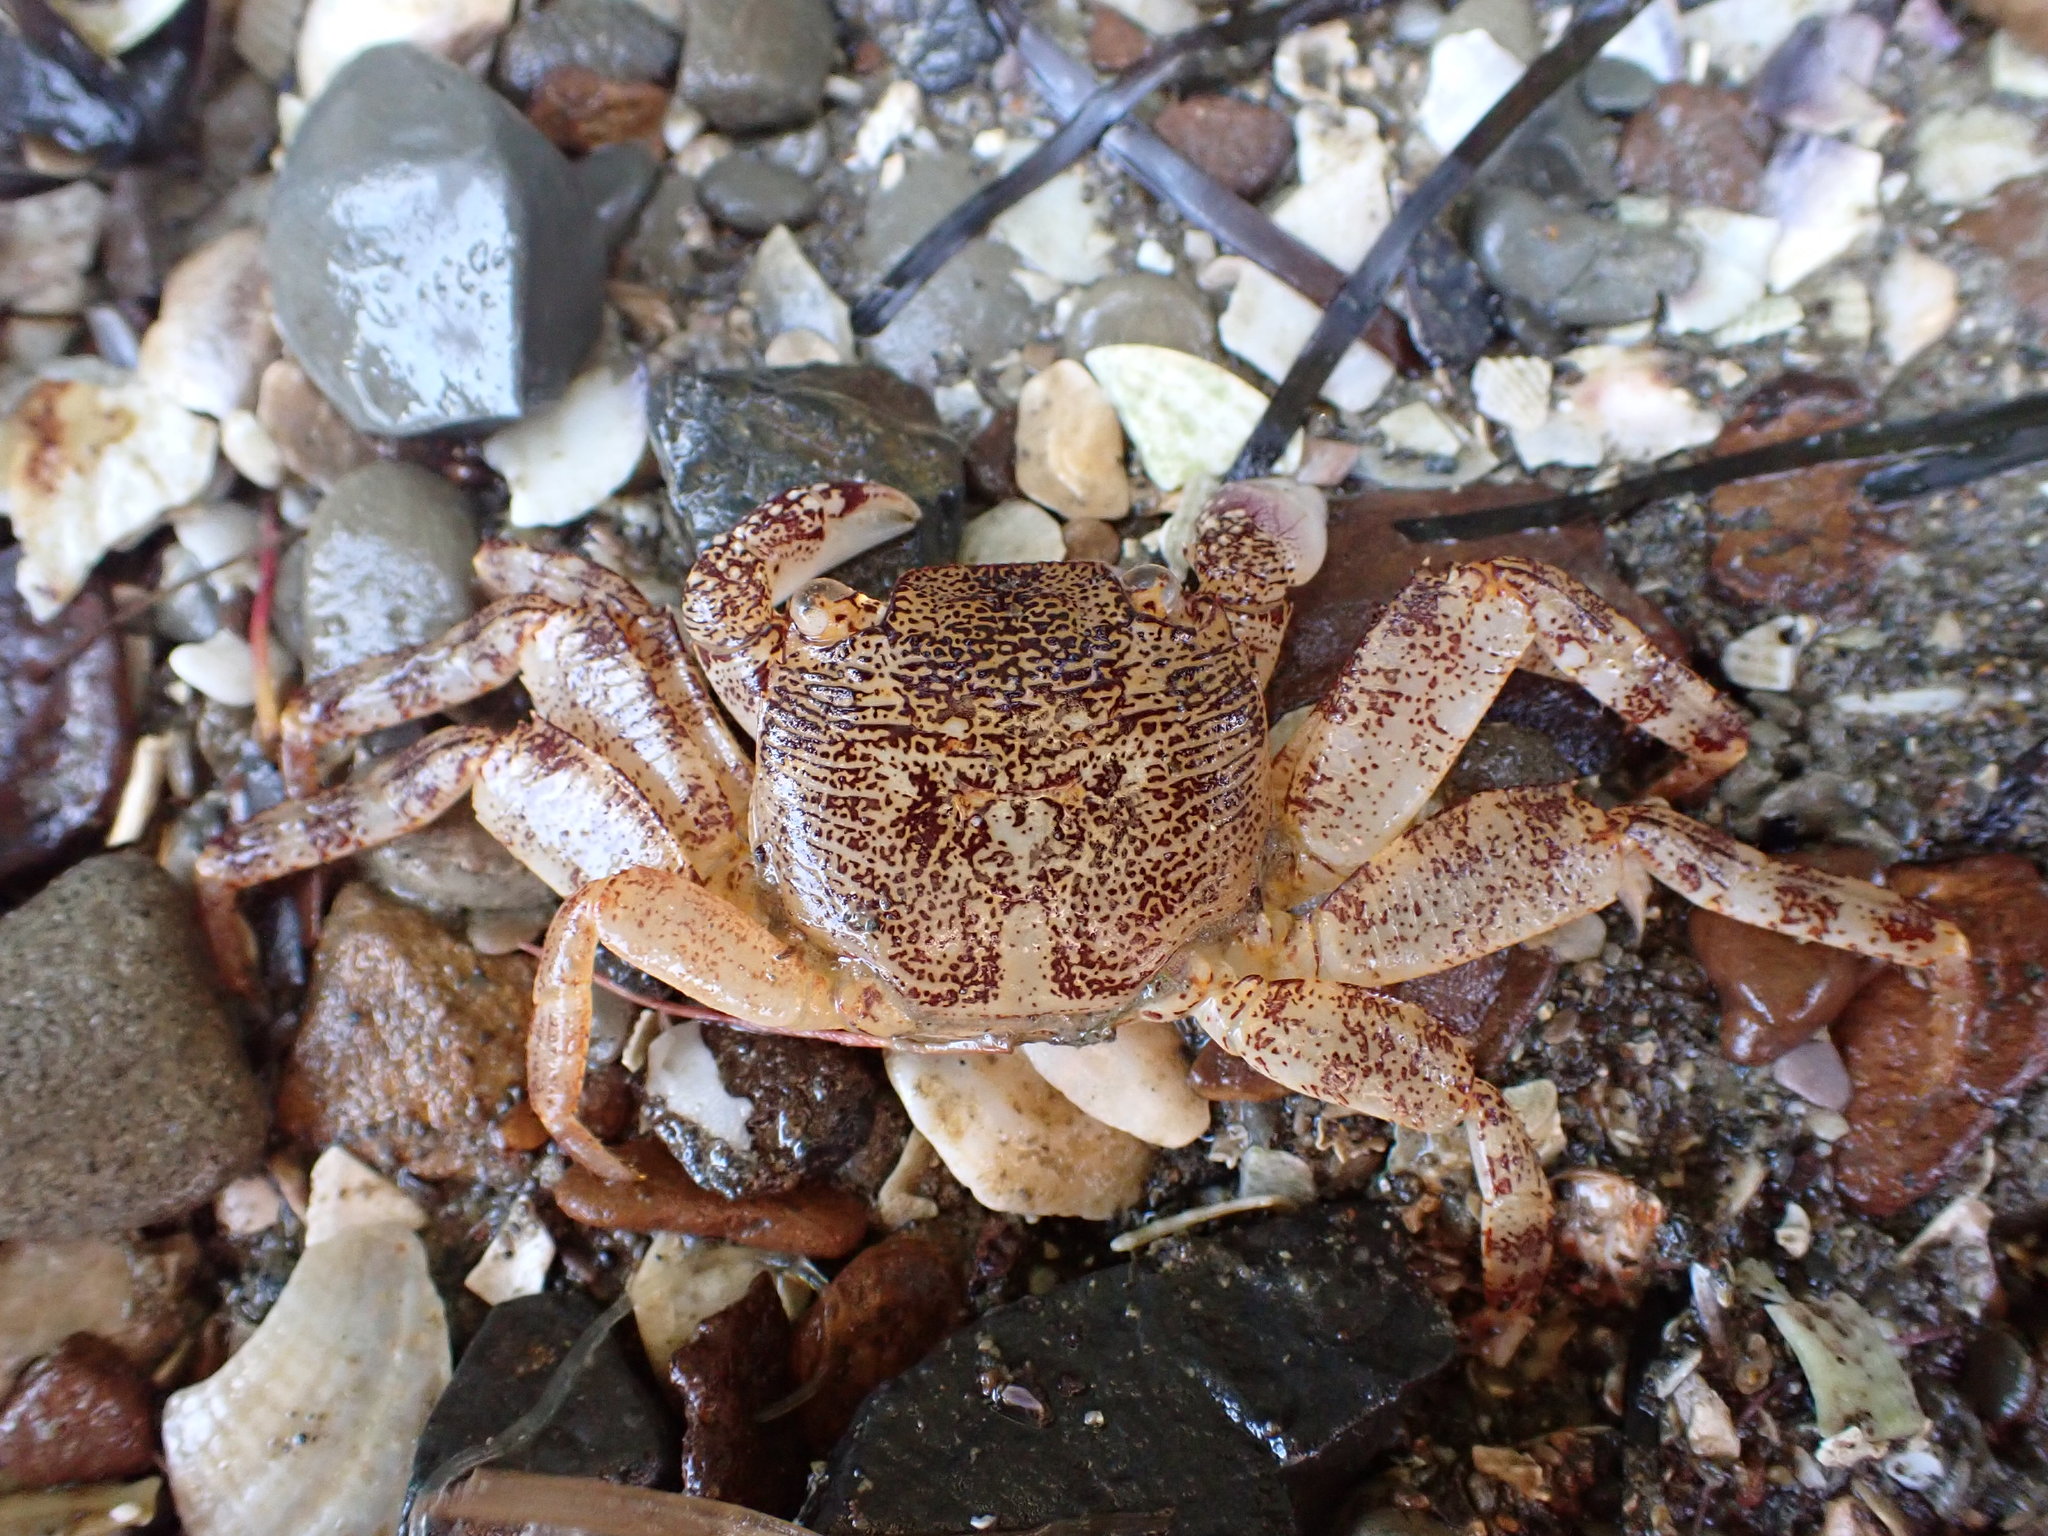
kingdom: Animalia
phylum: Arthropoda
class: Malacostraca
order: Decapoda
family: Grapsidae
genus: Leptograpsus
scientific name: Leptograpsus variegatus
